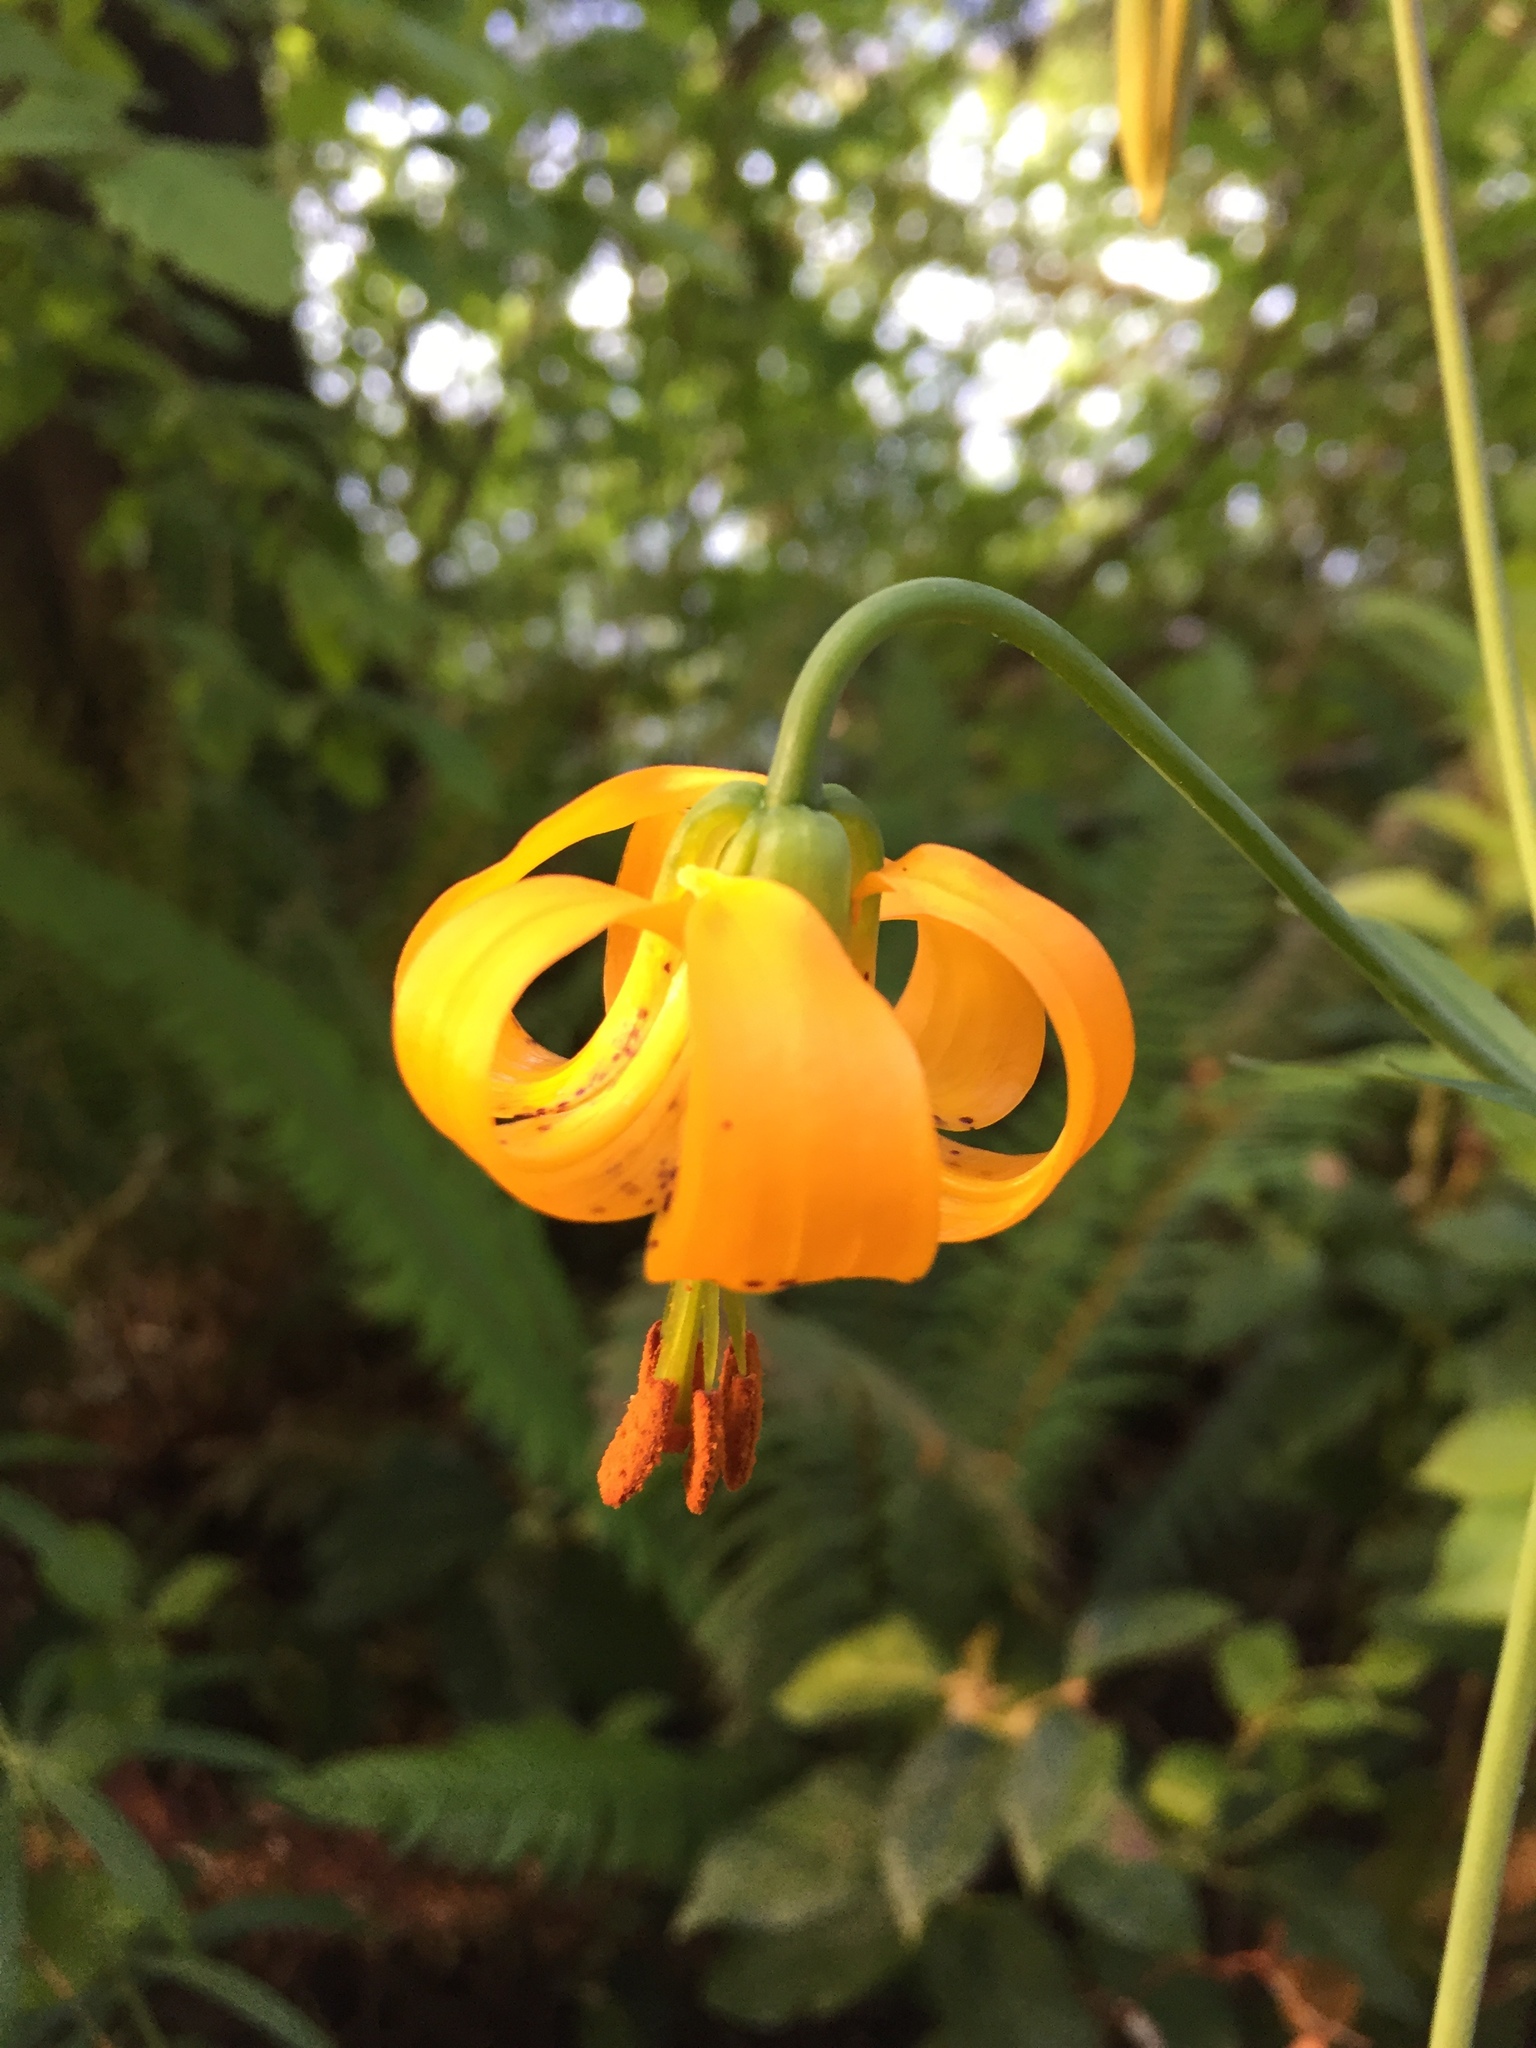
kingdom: Plantae
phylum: Tracheophyta
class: Liliopsida
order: Liliales
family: Liliaceae
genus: Lilium
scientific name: Lilium columbianum
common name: Columbia lily
